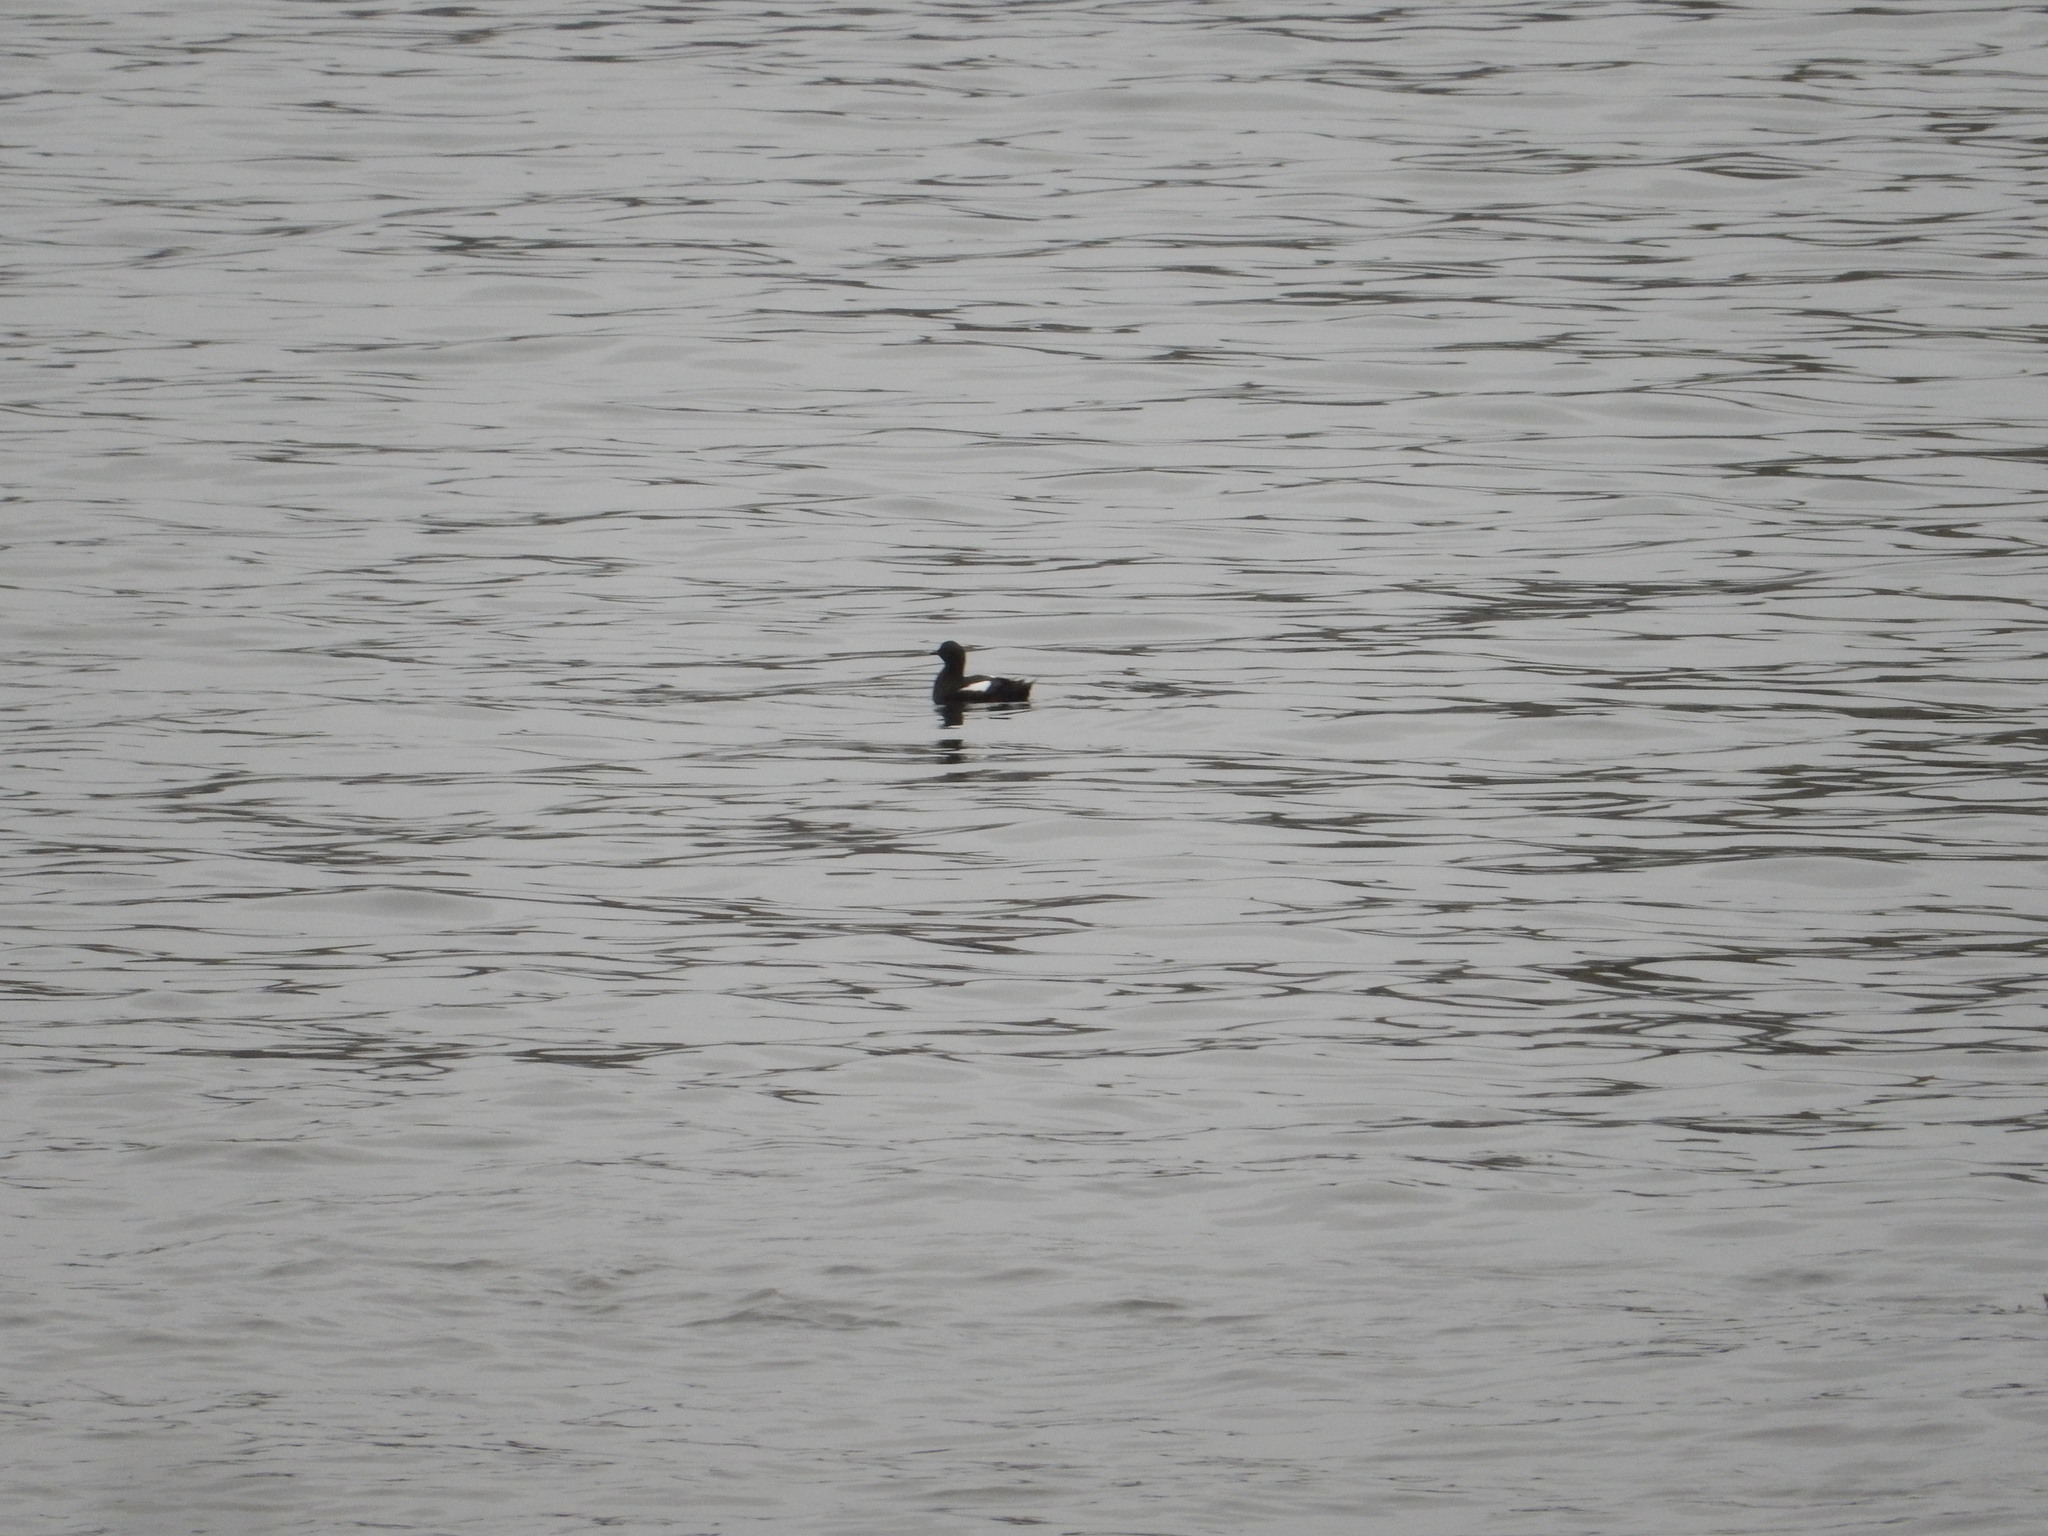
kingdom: Animalia
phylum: Chordata
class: Aves
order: Charadriiformes
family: Alcidae
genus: Cepphus
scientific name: Cepphus grylle
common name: Black guillemot
